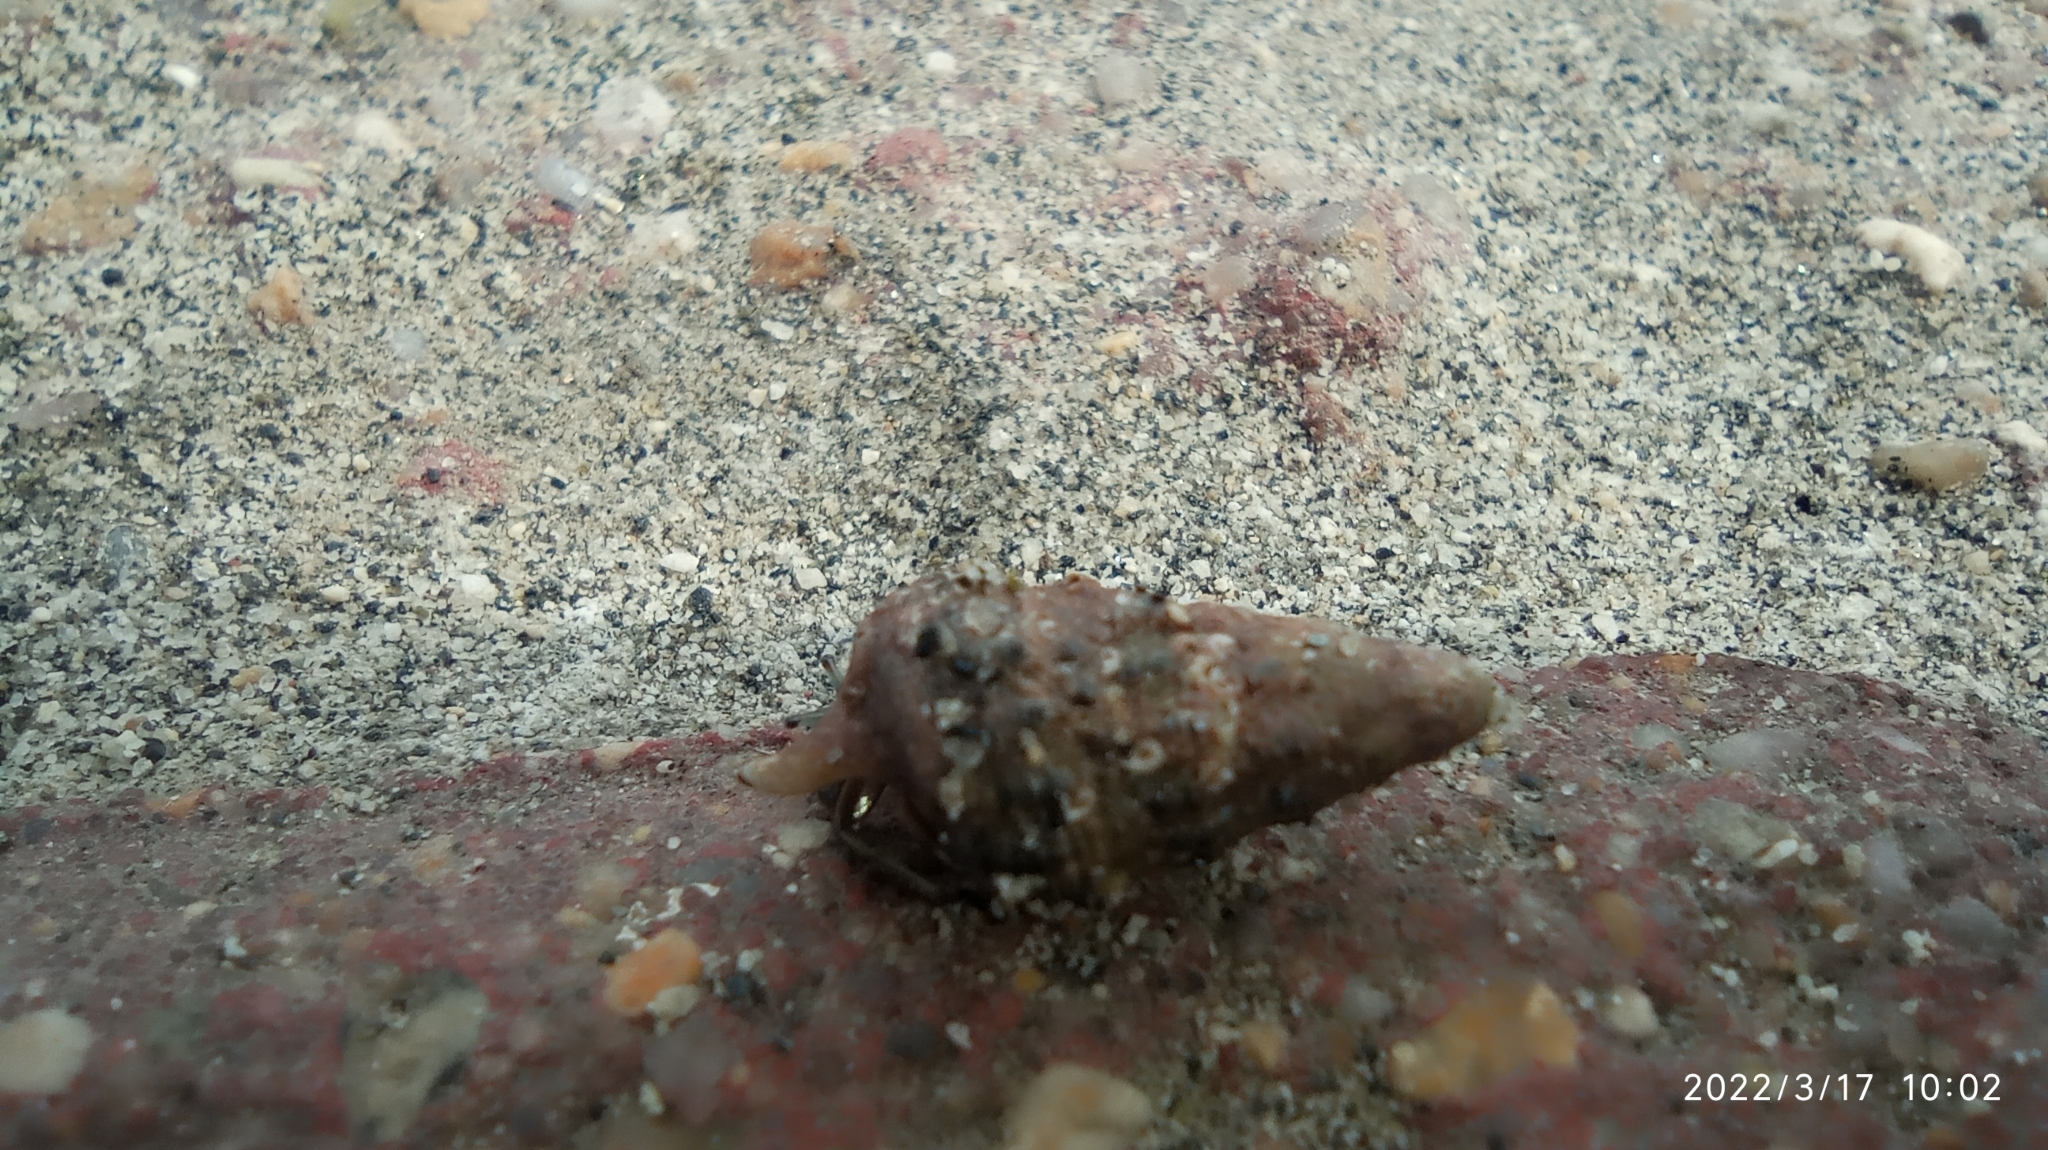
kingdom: Animalia
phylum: Arthropoda
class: Malacostraca
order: Decapoda
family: Diogenidae
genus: Clibanarius
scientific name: Clibanarius brasiliensis
